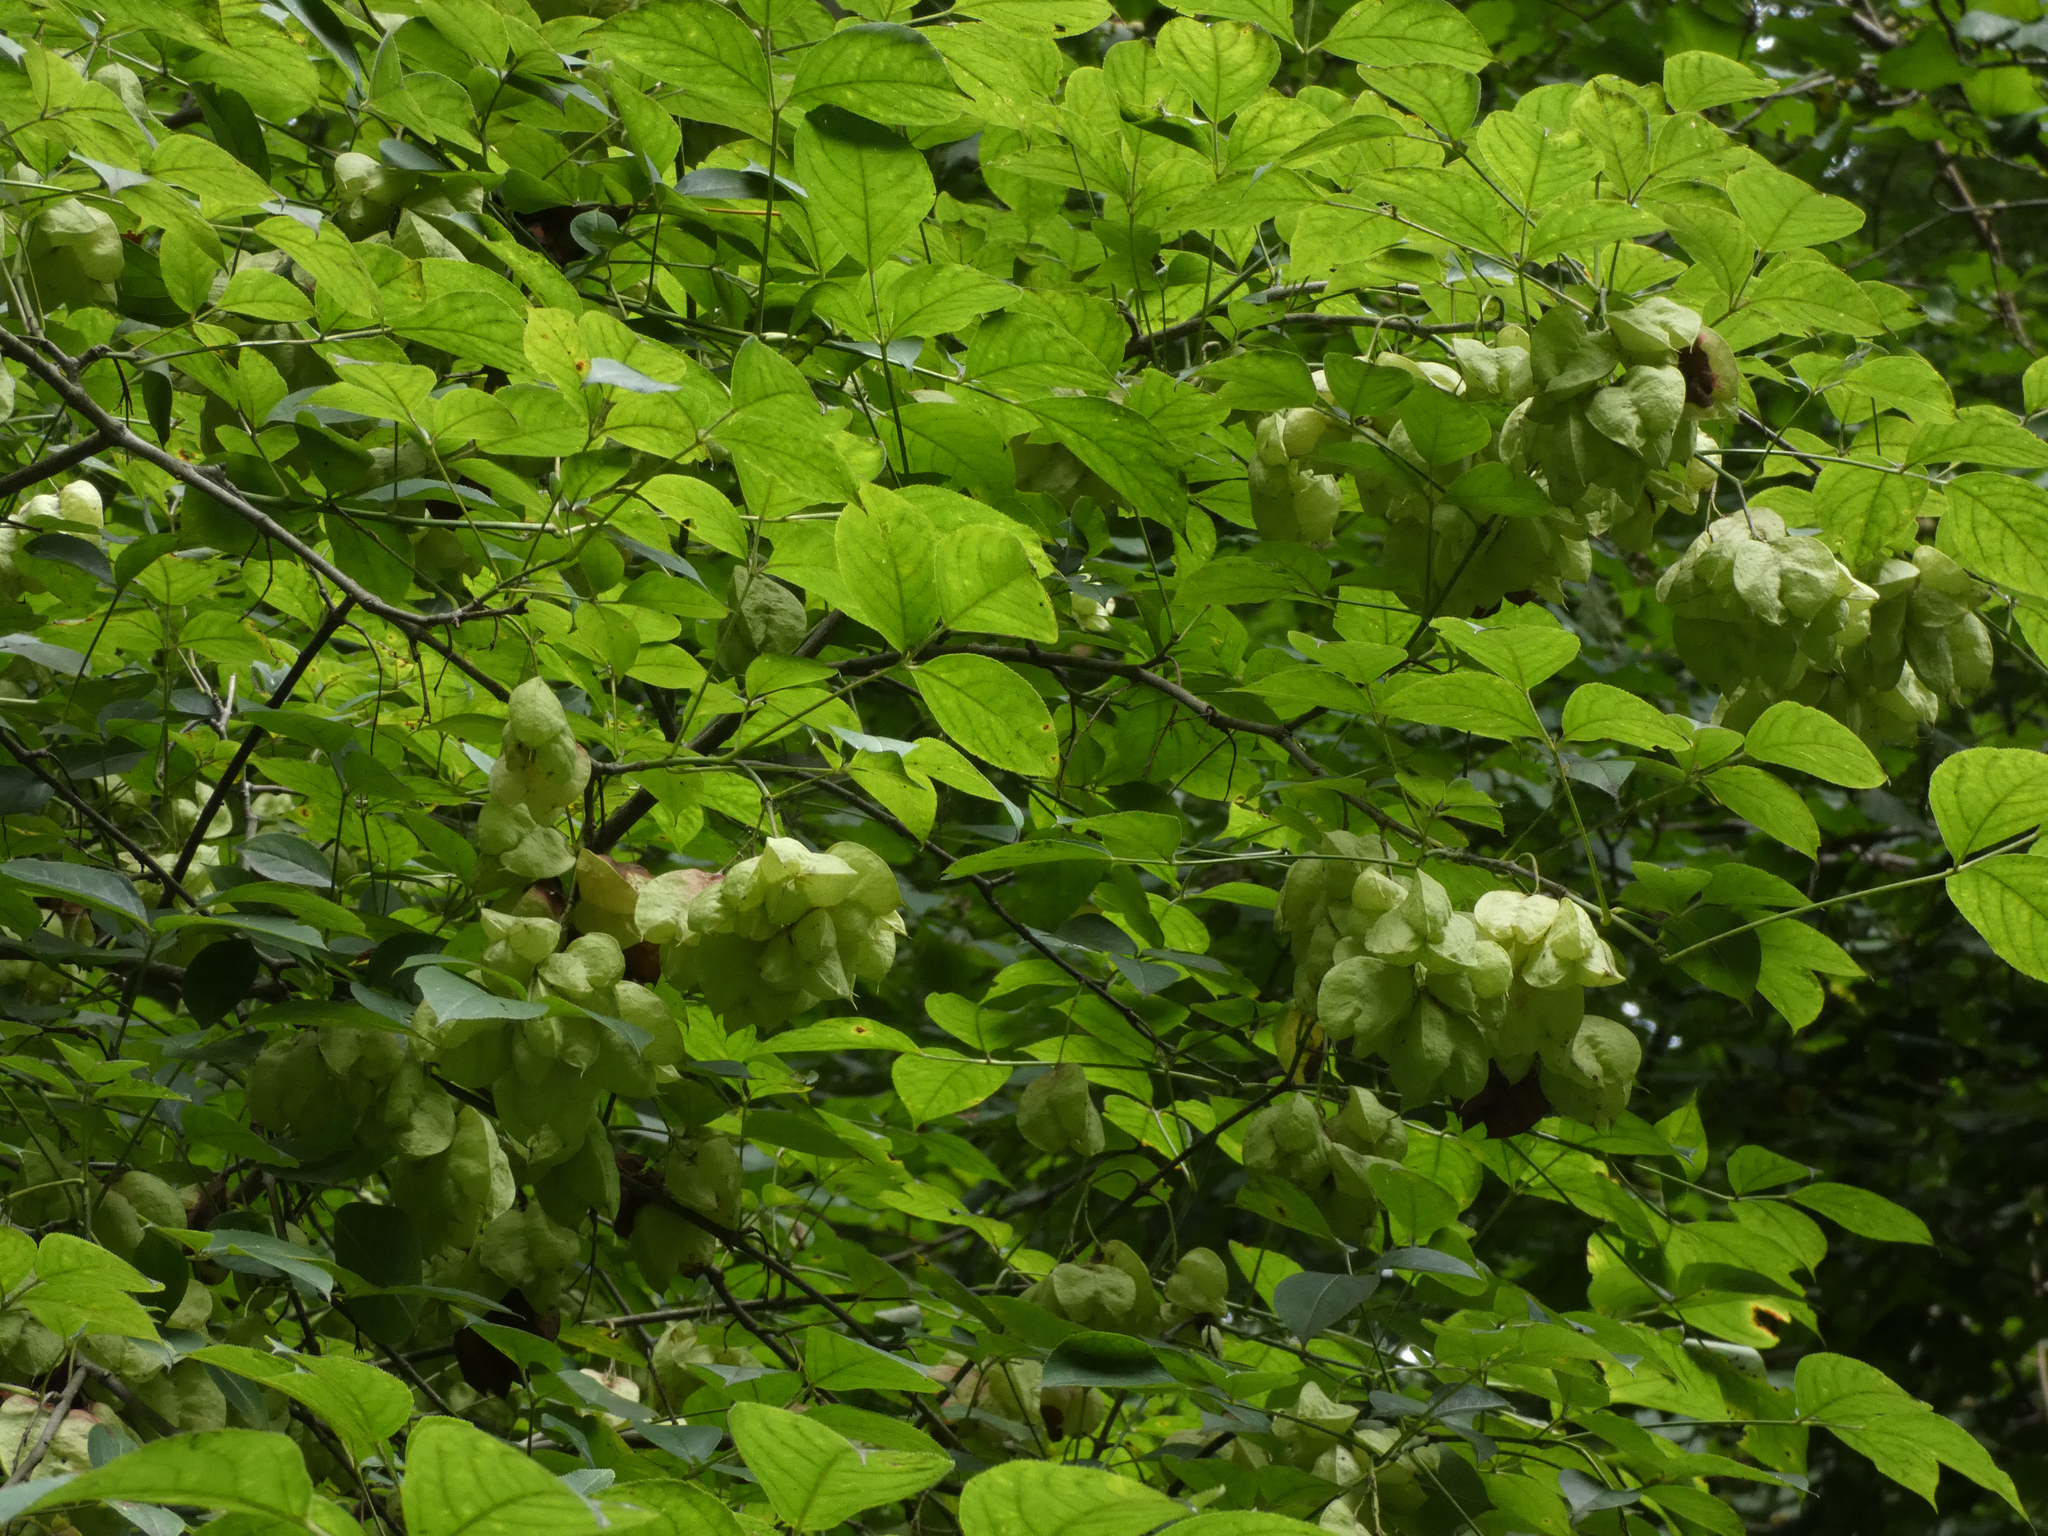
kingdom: Plantae
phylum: Tracheophyta
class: Magnoliopsida
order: Crossosomatales
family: Staphyleaceae
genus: Staphylea
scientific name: Staphylea trifolia
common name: American bladdernut
